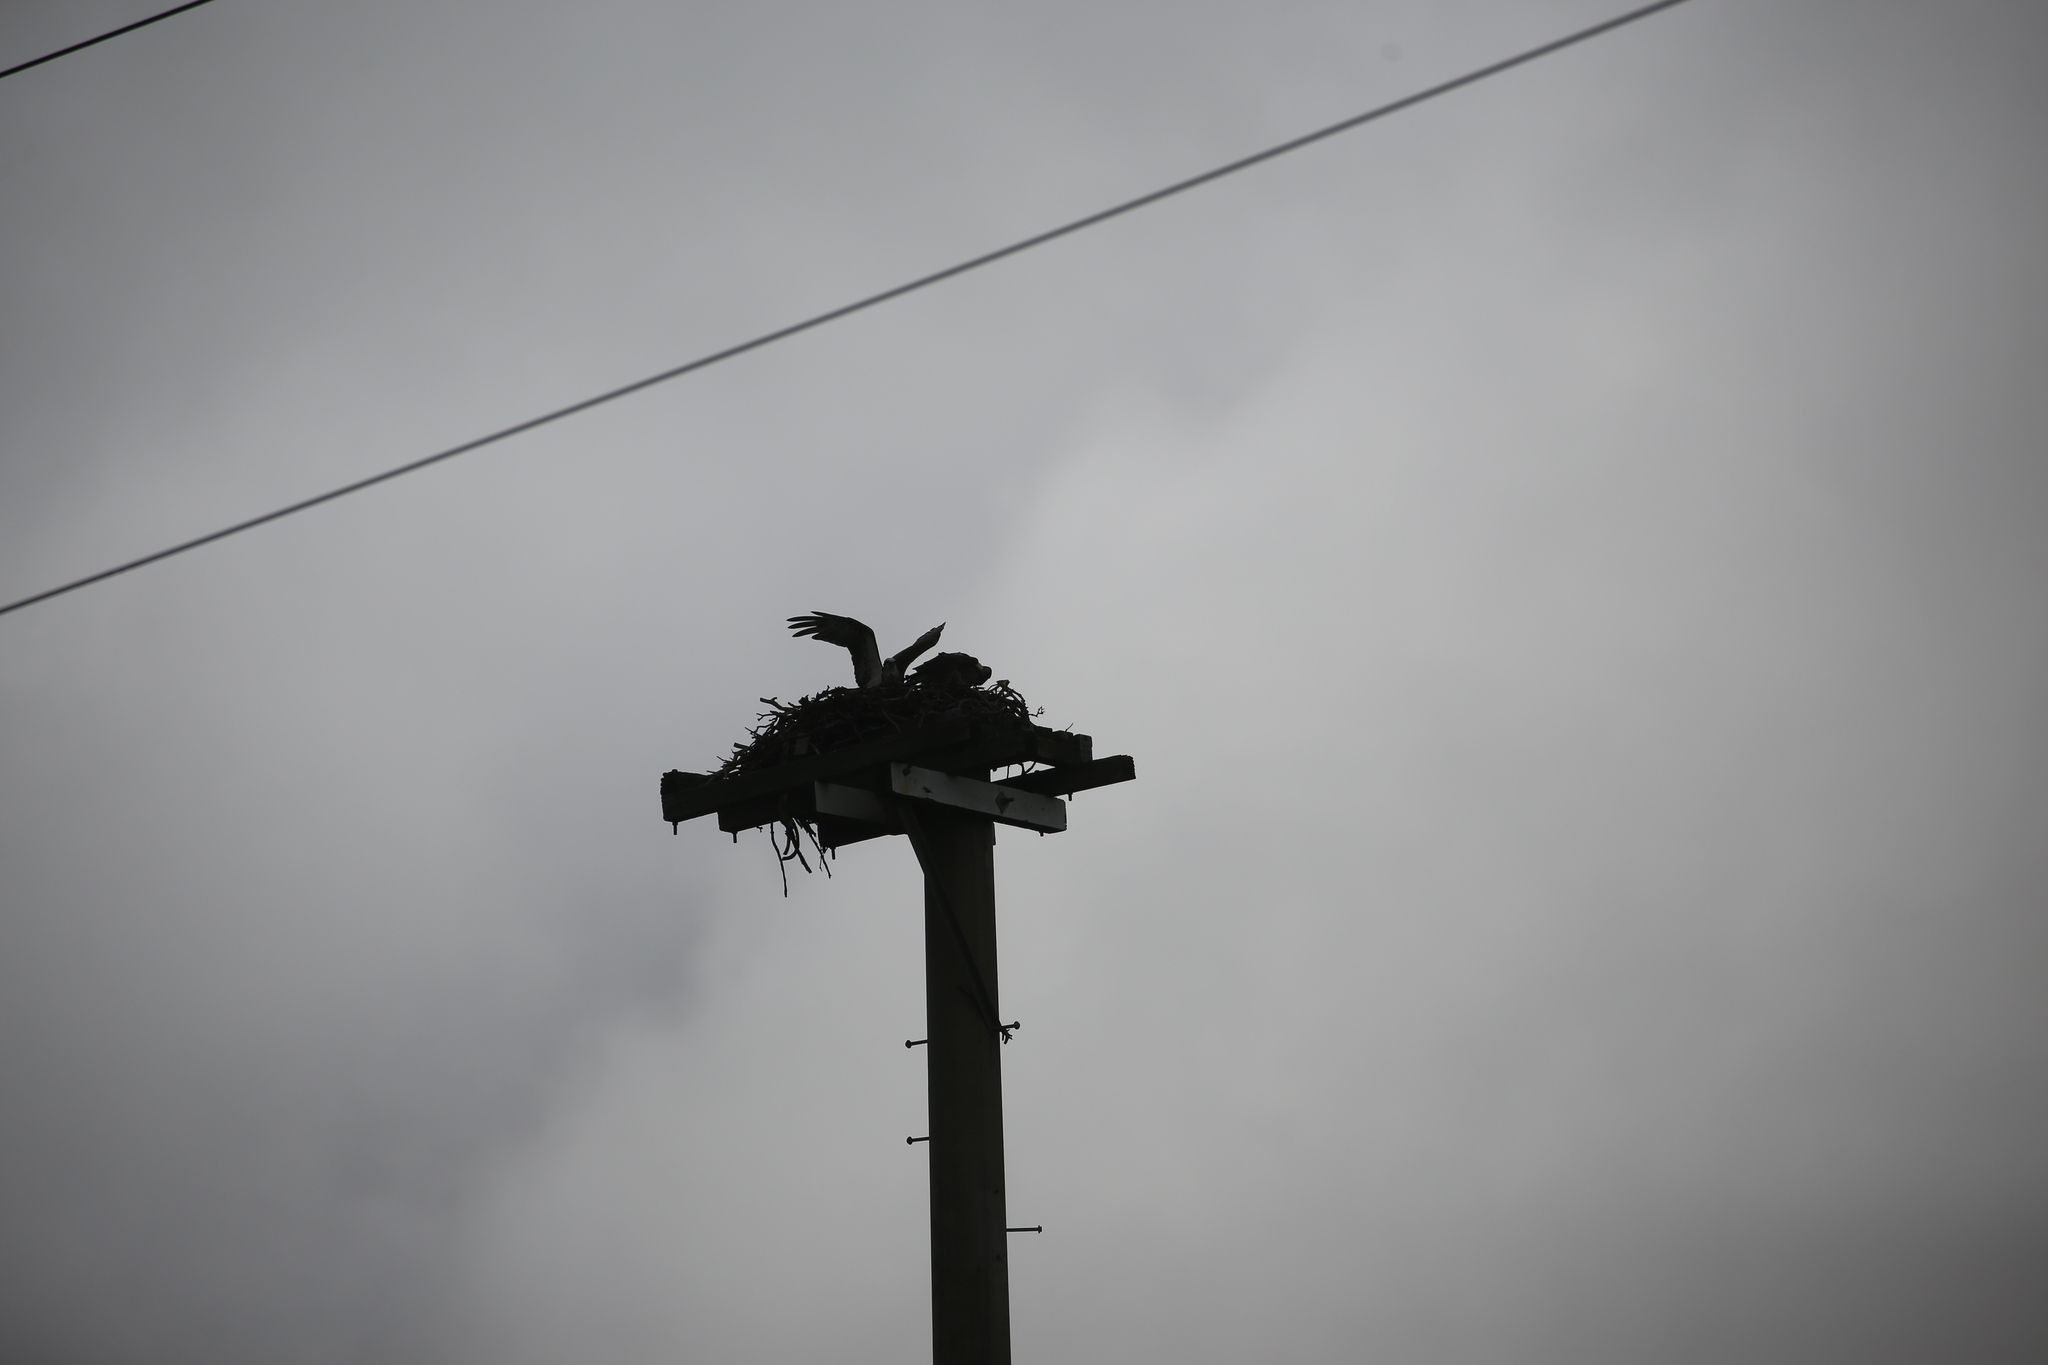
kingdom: Animalia
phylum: Chordata
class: Aves
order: Accipitriformes
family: Pandionidae
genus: Pandion
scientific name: Pandion haliaetus
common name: Osprey
